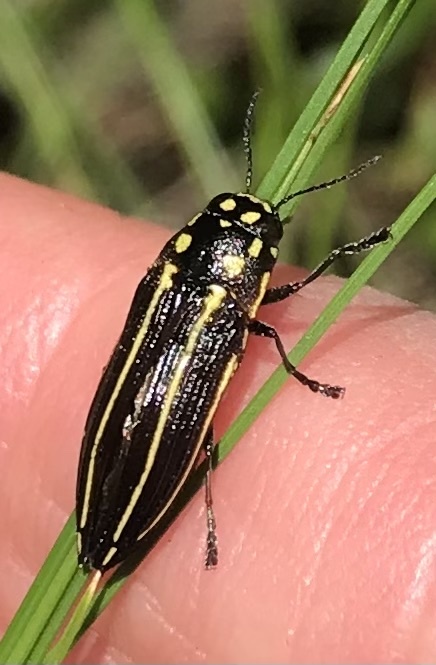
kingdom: Animalia
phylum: Arthropoda
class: Insecta
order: Coleoptera
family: Buprestidae
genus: Bulis
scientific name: Bulis bivittata
